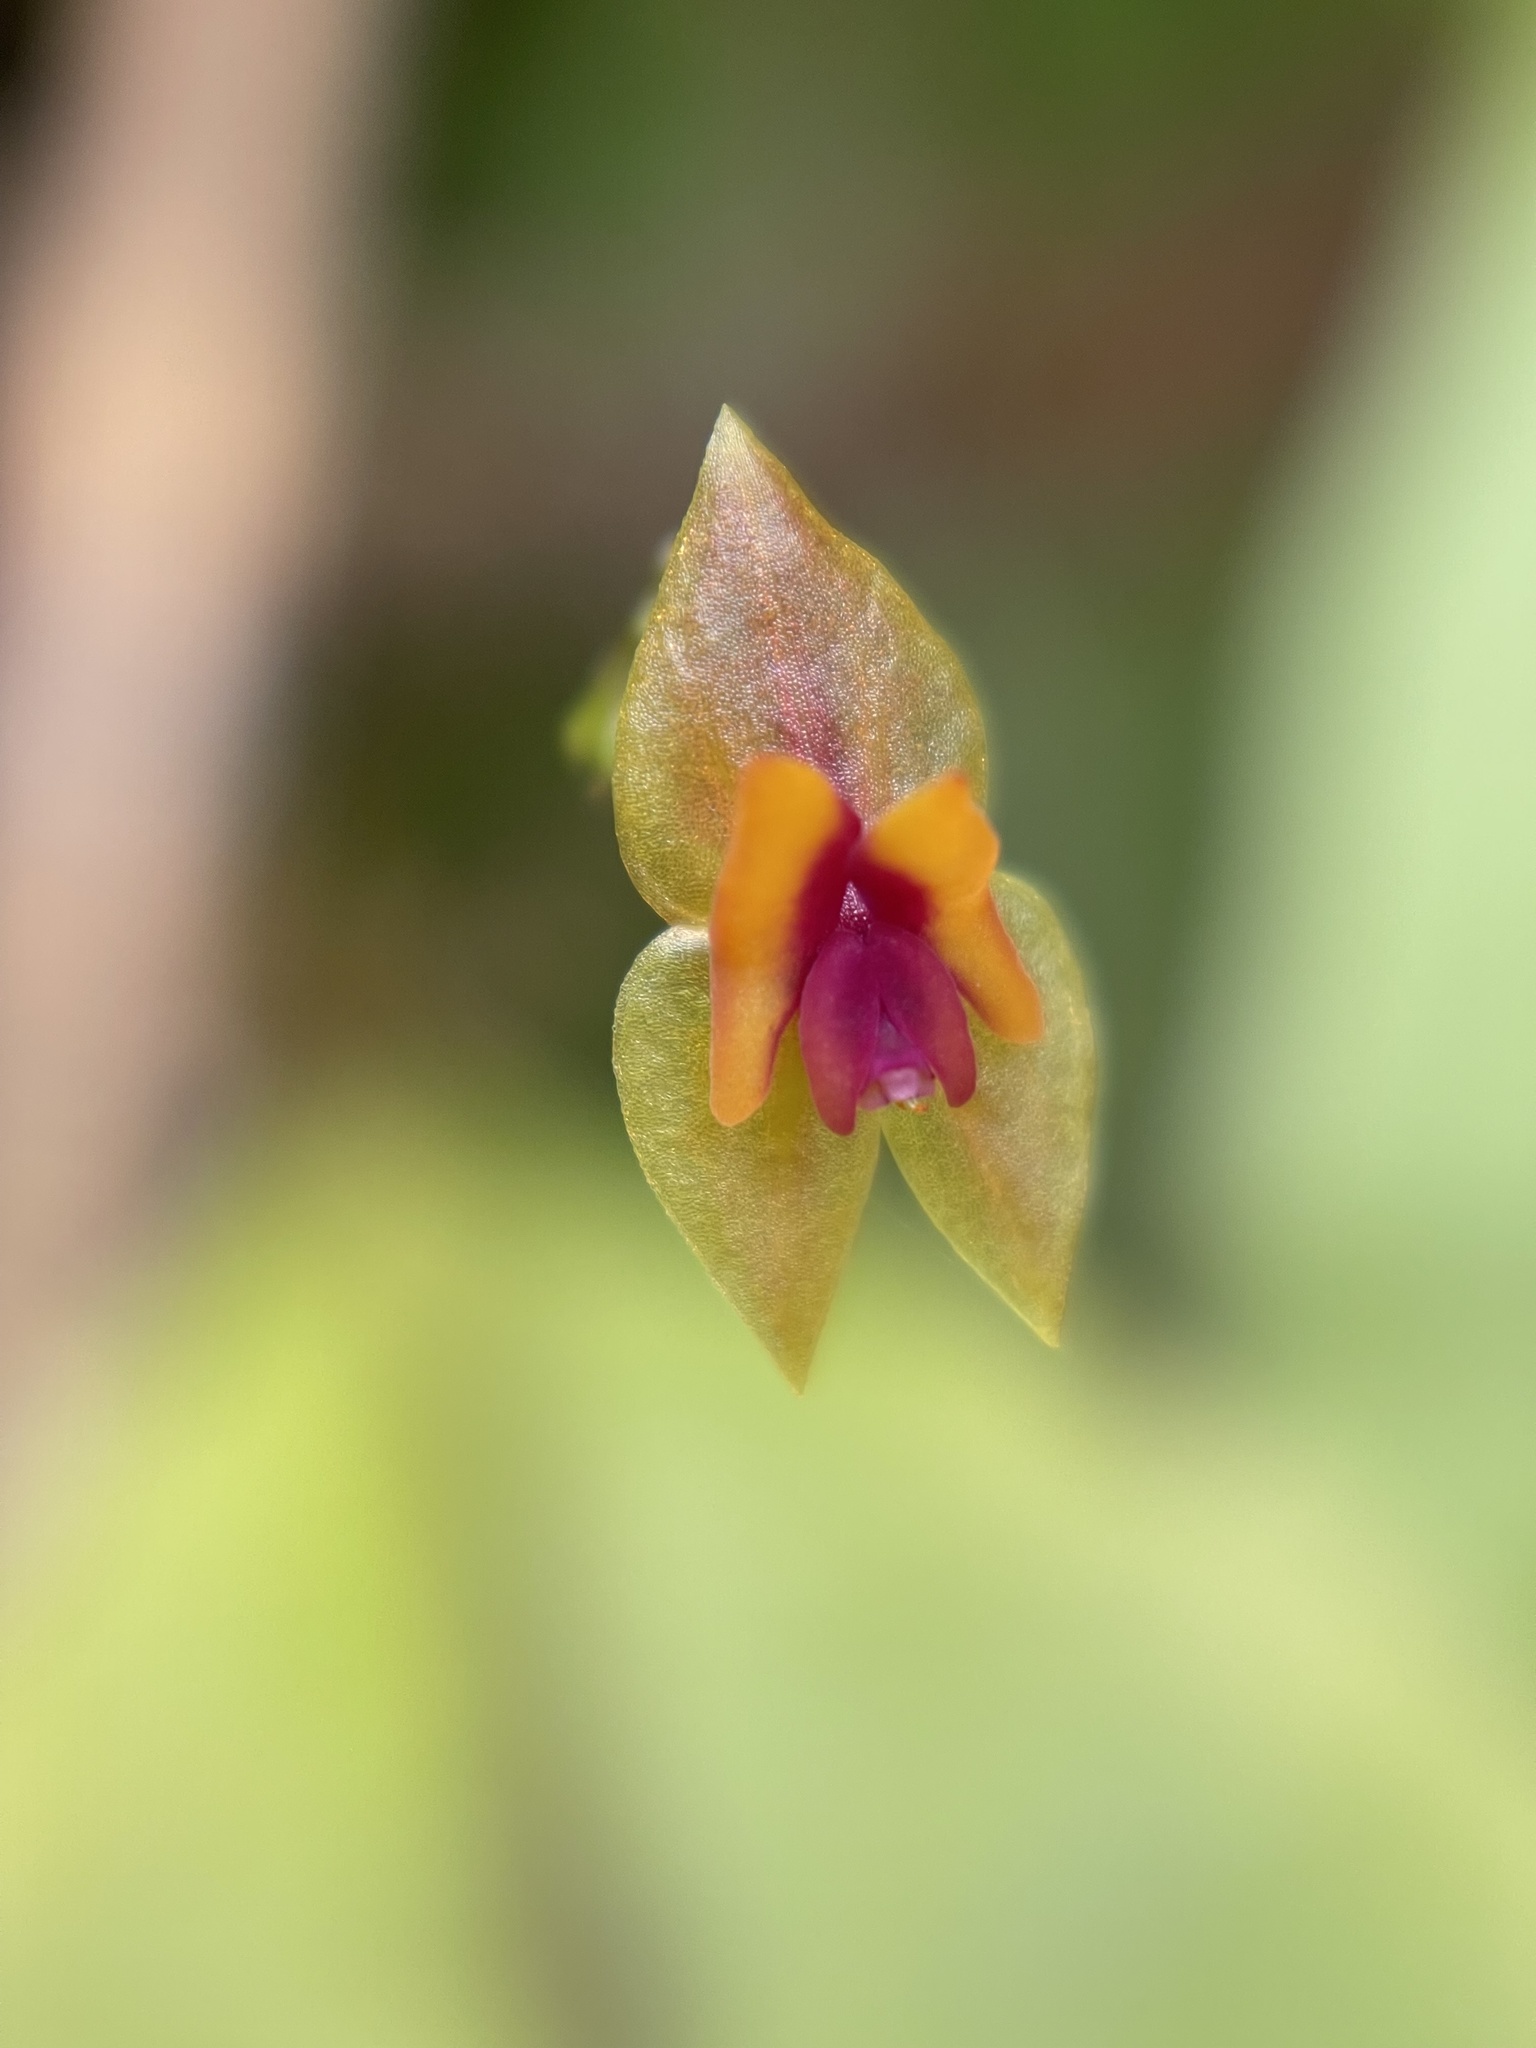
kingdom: Plantae
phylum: Tracheophyta
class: Liliopsida
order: Asparagales
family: Orchidaceae
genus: Lepanthes
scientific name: Lepanthes woodburyana
